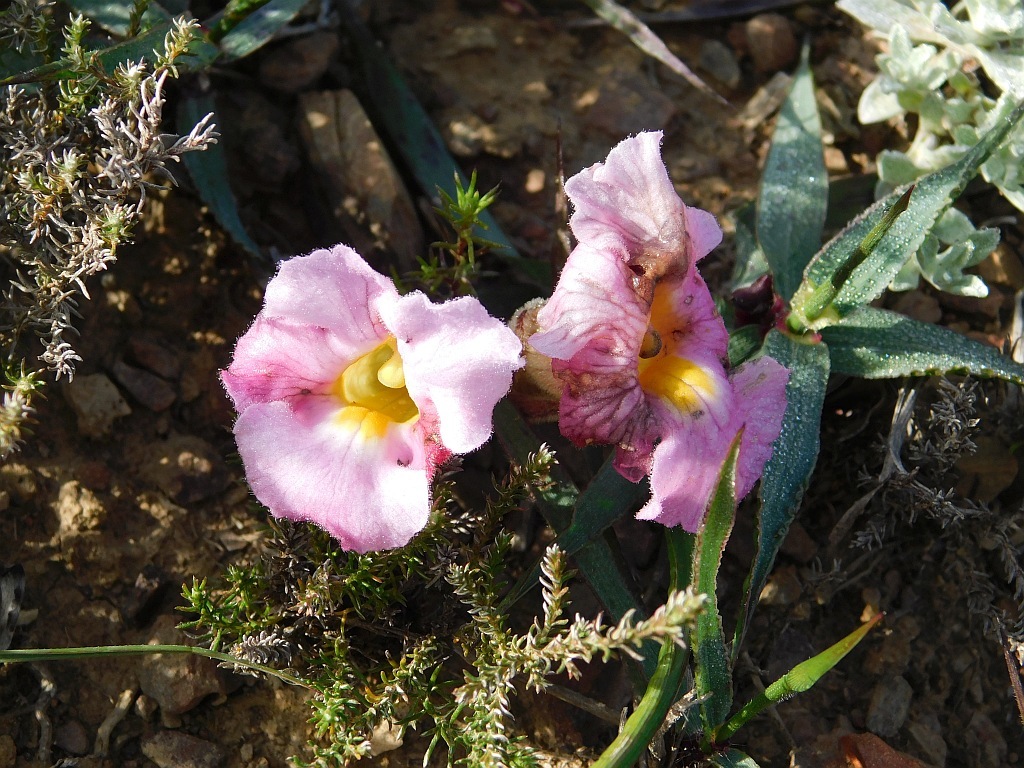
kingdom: Plantae
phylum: Tracheophyta
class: Magnoliopsida
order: Lamiales
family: Orobanchaceae
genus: Harveya
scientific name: Harveya purpurea
